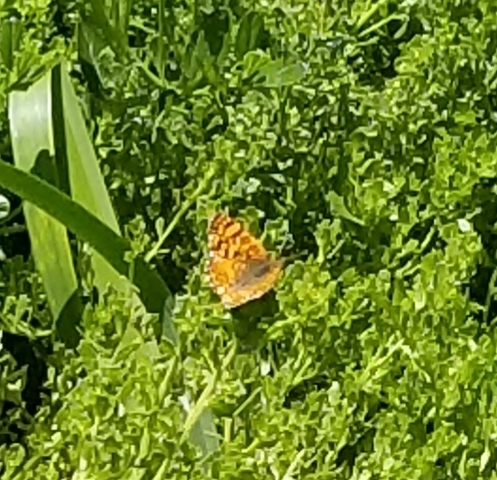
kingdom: Animalia
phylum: Arthropoda
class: Insecta
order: Lepidoptera
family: Nymphalidae
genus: Eresia
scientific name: Eresia aveyrona
